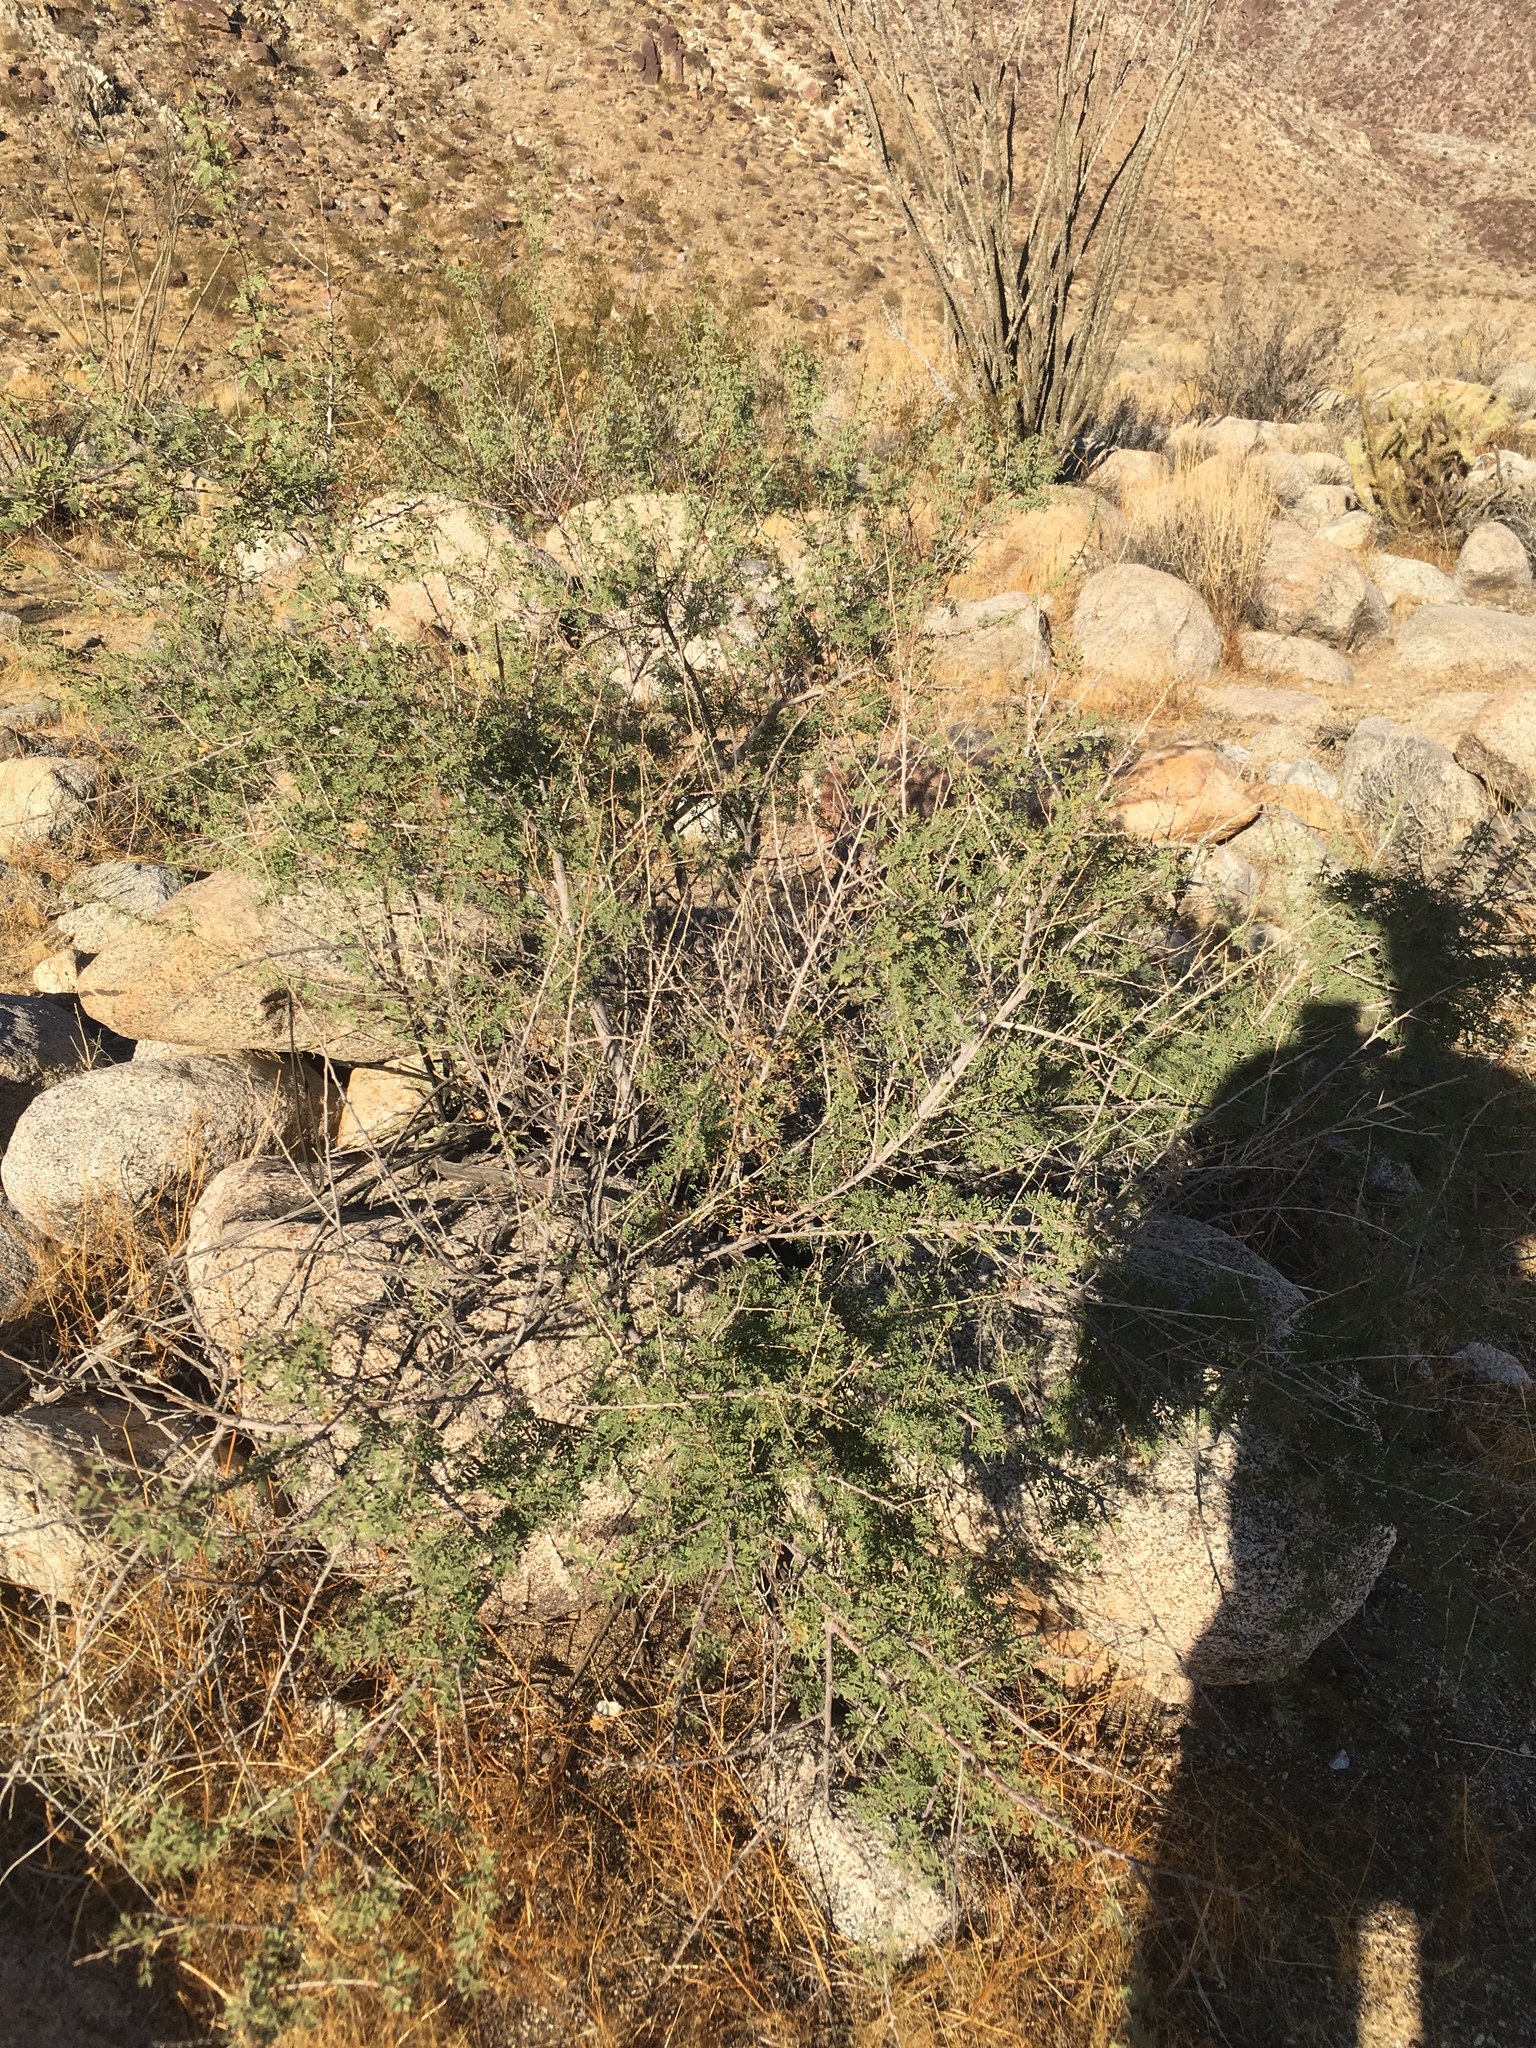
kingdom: Plantae
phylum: Tracheophyta
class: Magnoliopsida
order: Fabales
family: Fabaceae
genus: Senegalia
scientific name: Senegalia greggii
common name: Texas-mimosa
